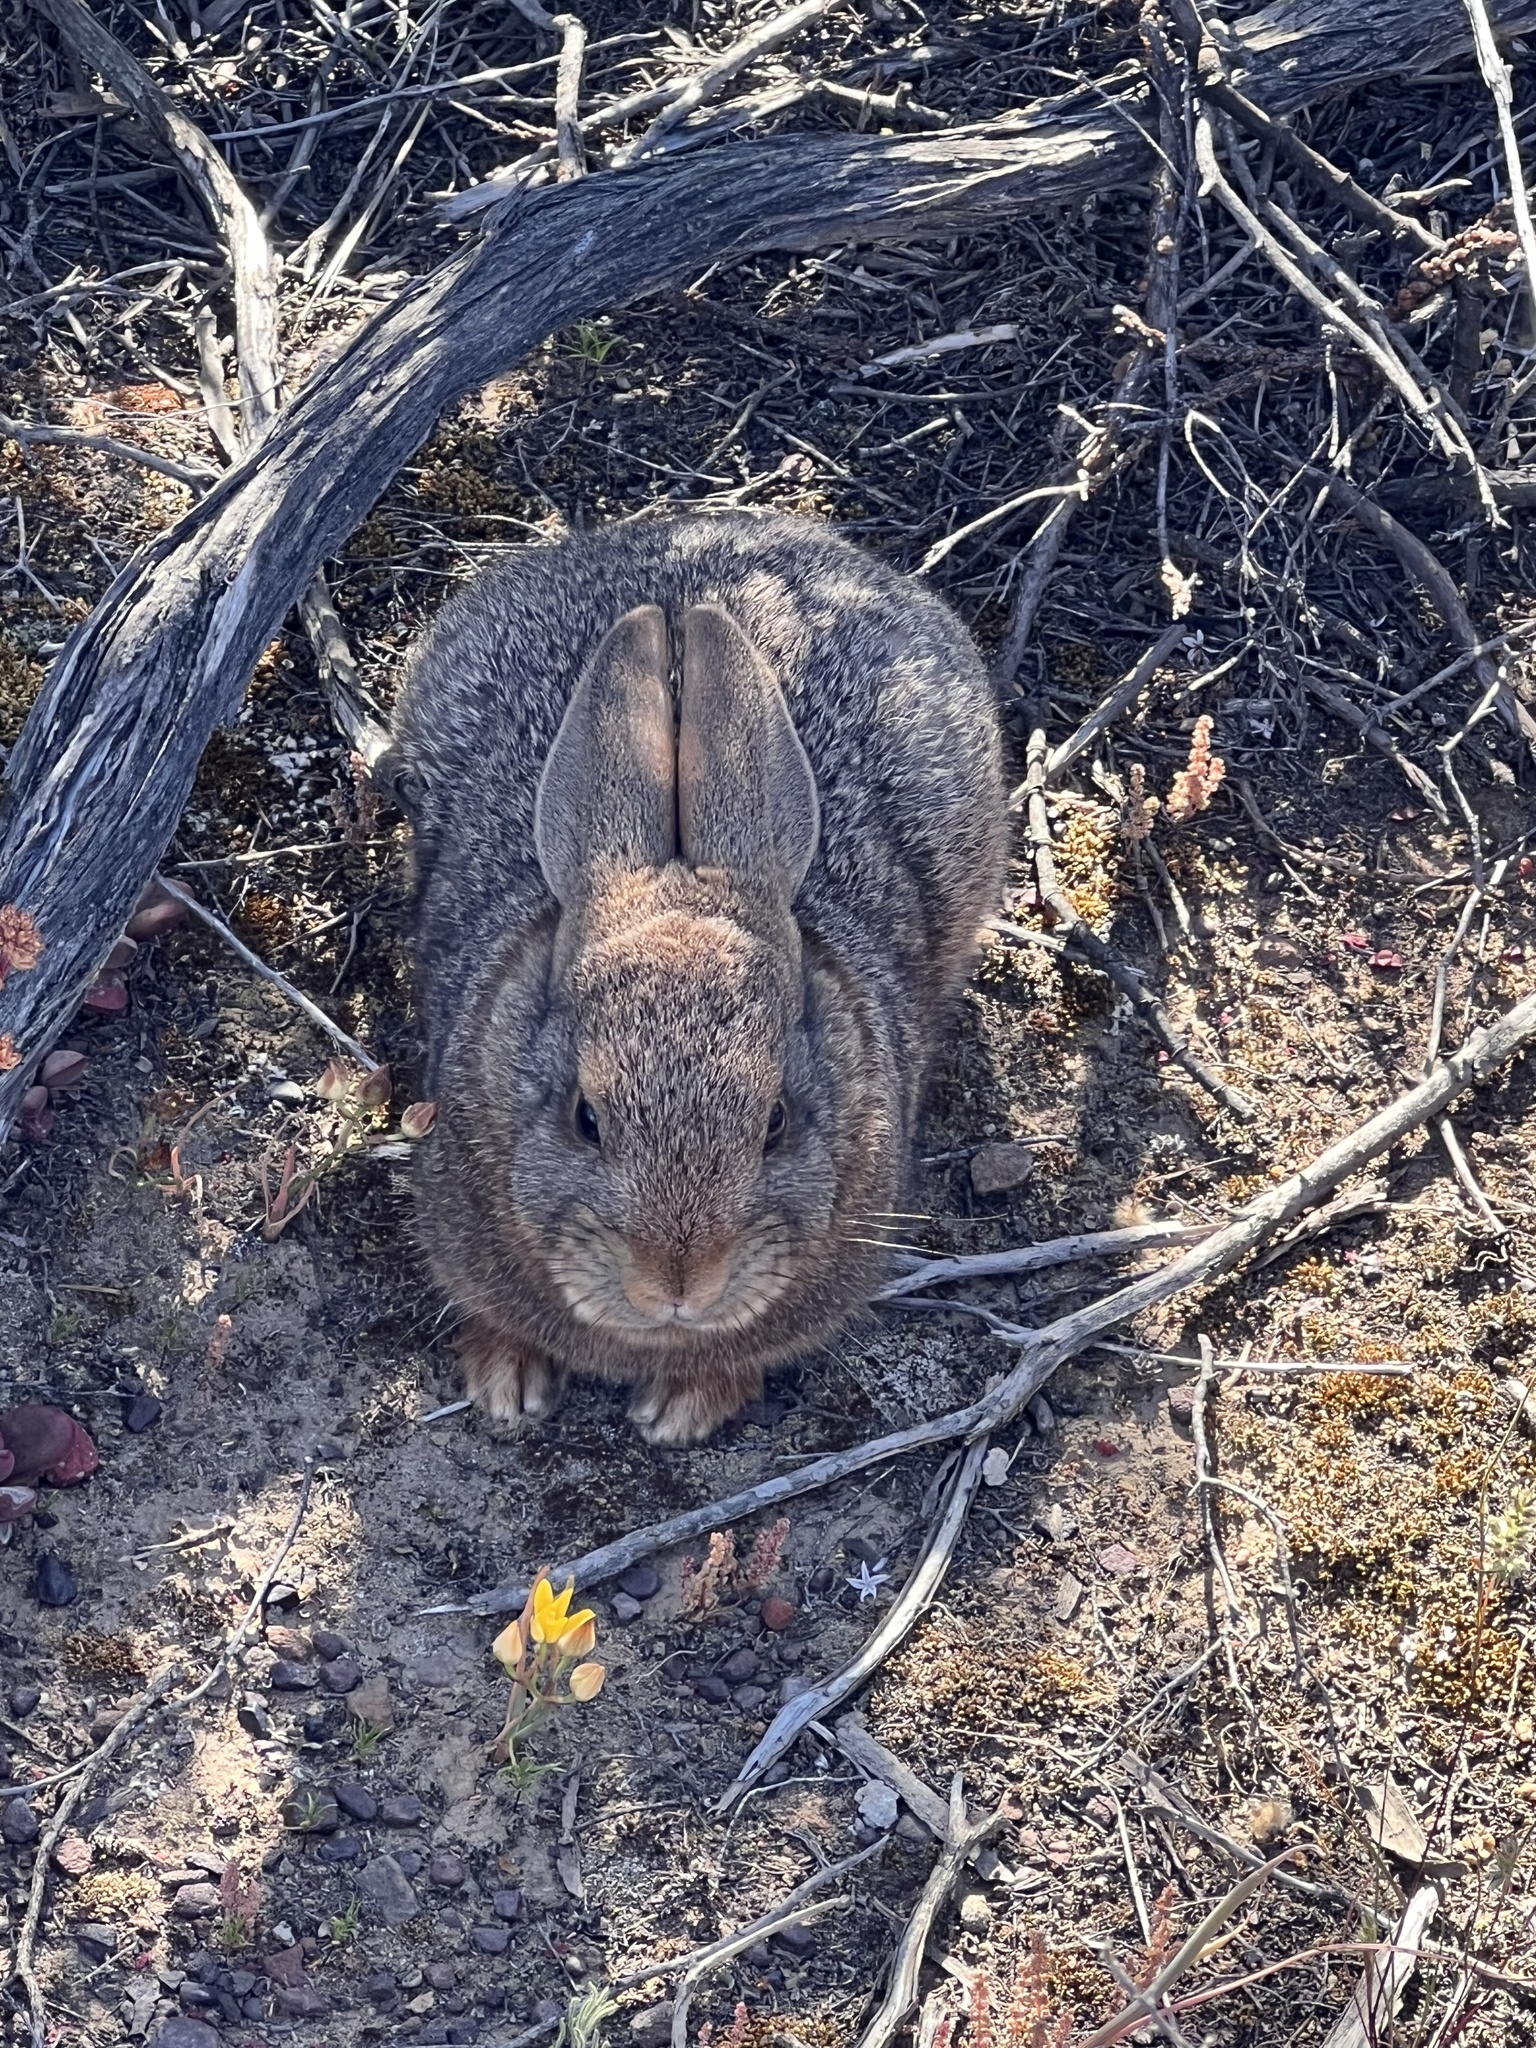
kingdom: Animalia
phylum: Chordata
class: Mammalia
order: Lagomorpha
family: Leporidae
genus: Lepus
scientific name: Lepus saxatilis
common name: Scrub hare
